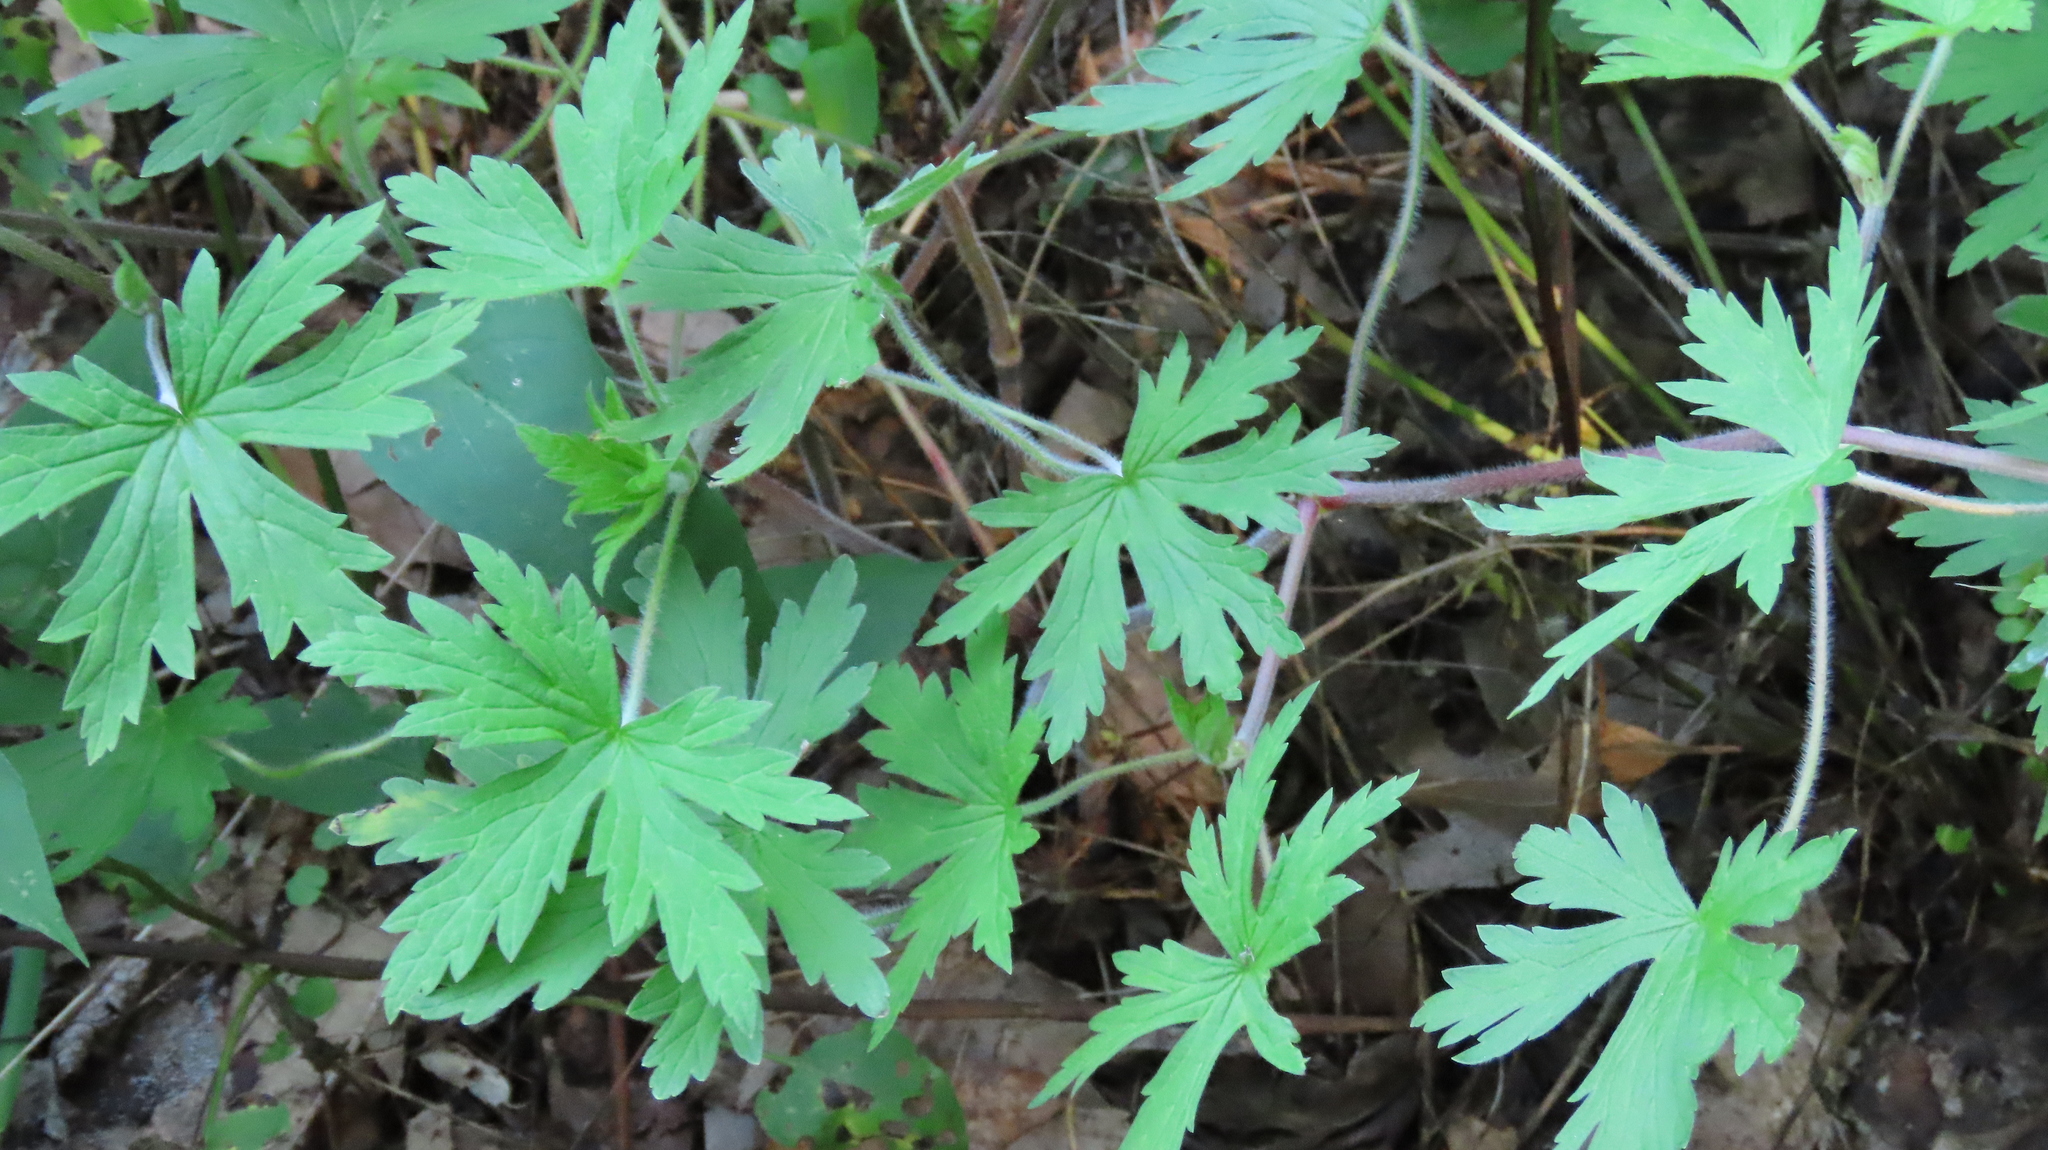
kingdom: Plantae
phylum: Tracheophyta
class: Magnoliopsida
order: Geraniales
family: Geraniaceae
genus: Geranium
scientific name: Geranium sibiricum
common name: Siberian crane's-bill
